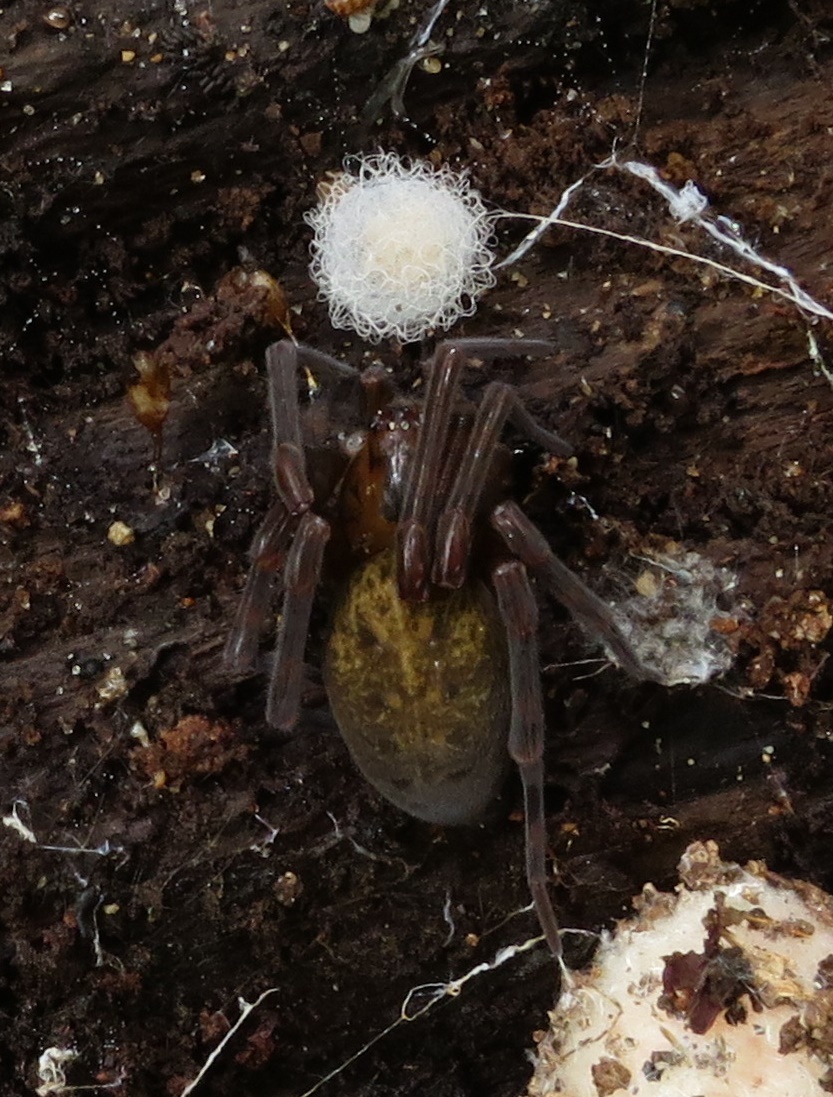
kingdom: Animalia
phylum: Arthropoda
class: Arachnida
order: Araneae
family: Megadictynidae
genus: Megadictyna
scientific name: Megadictyna thilenii
